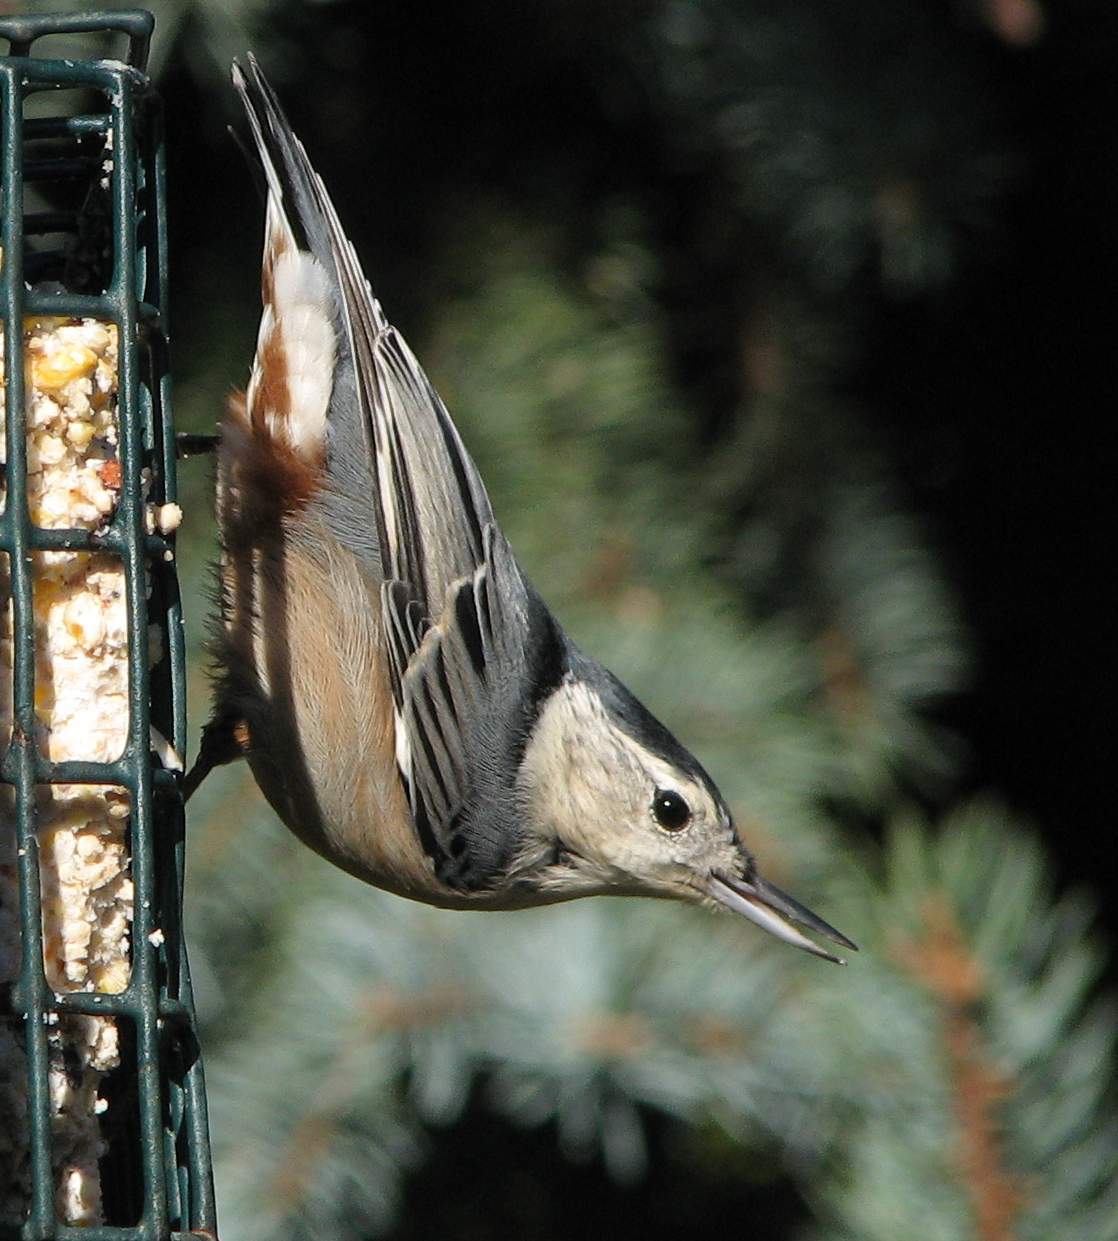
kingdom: Animalia
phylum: Chordata
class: Aves
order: Passeriformes
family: Sittidae
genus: Sitta
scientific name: Sitta carolinensis
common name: White-breasted nuthatch
